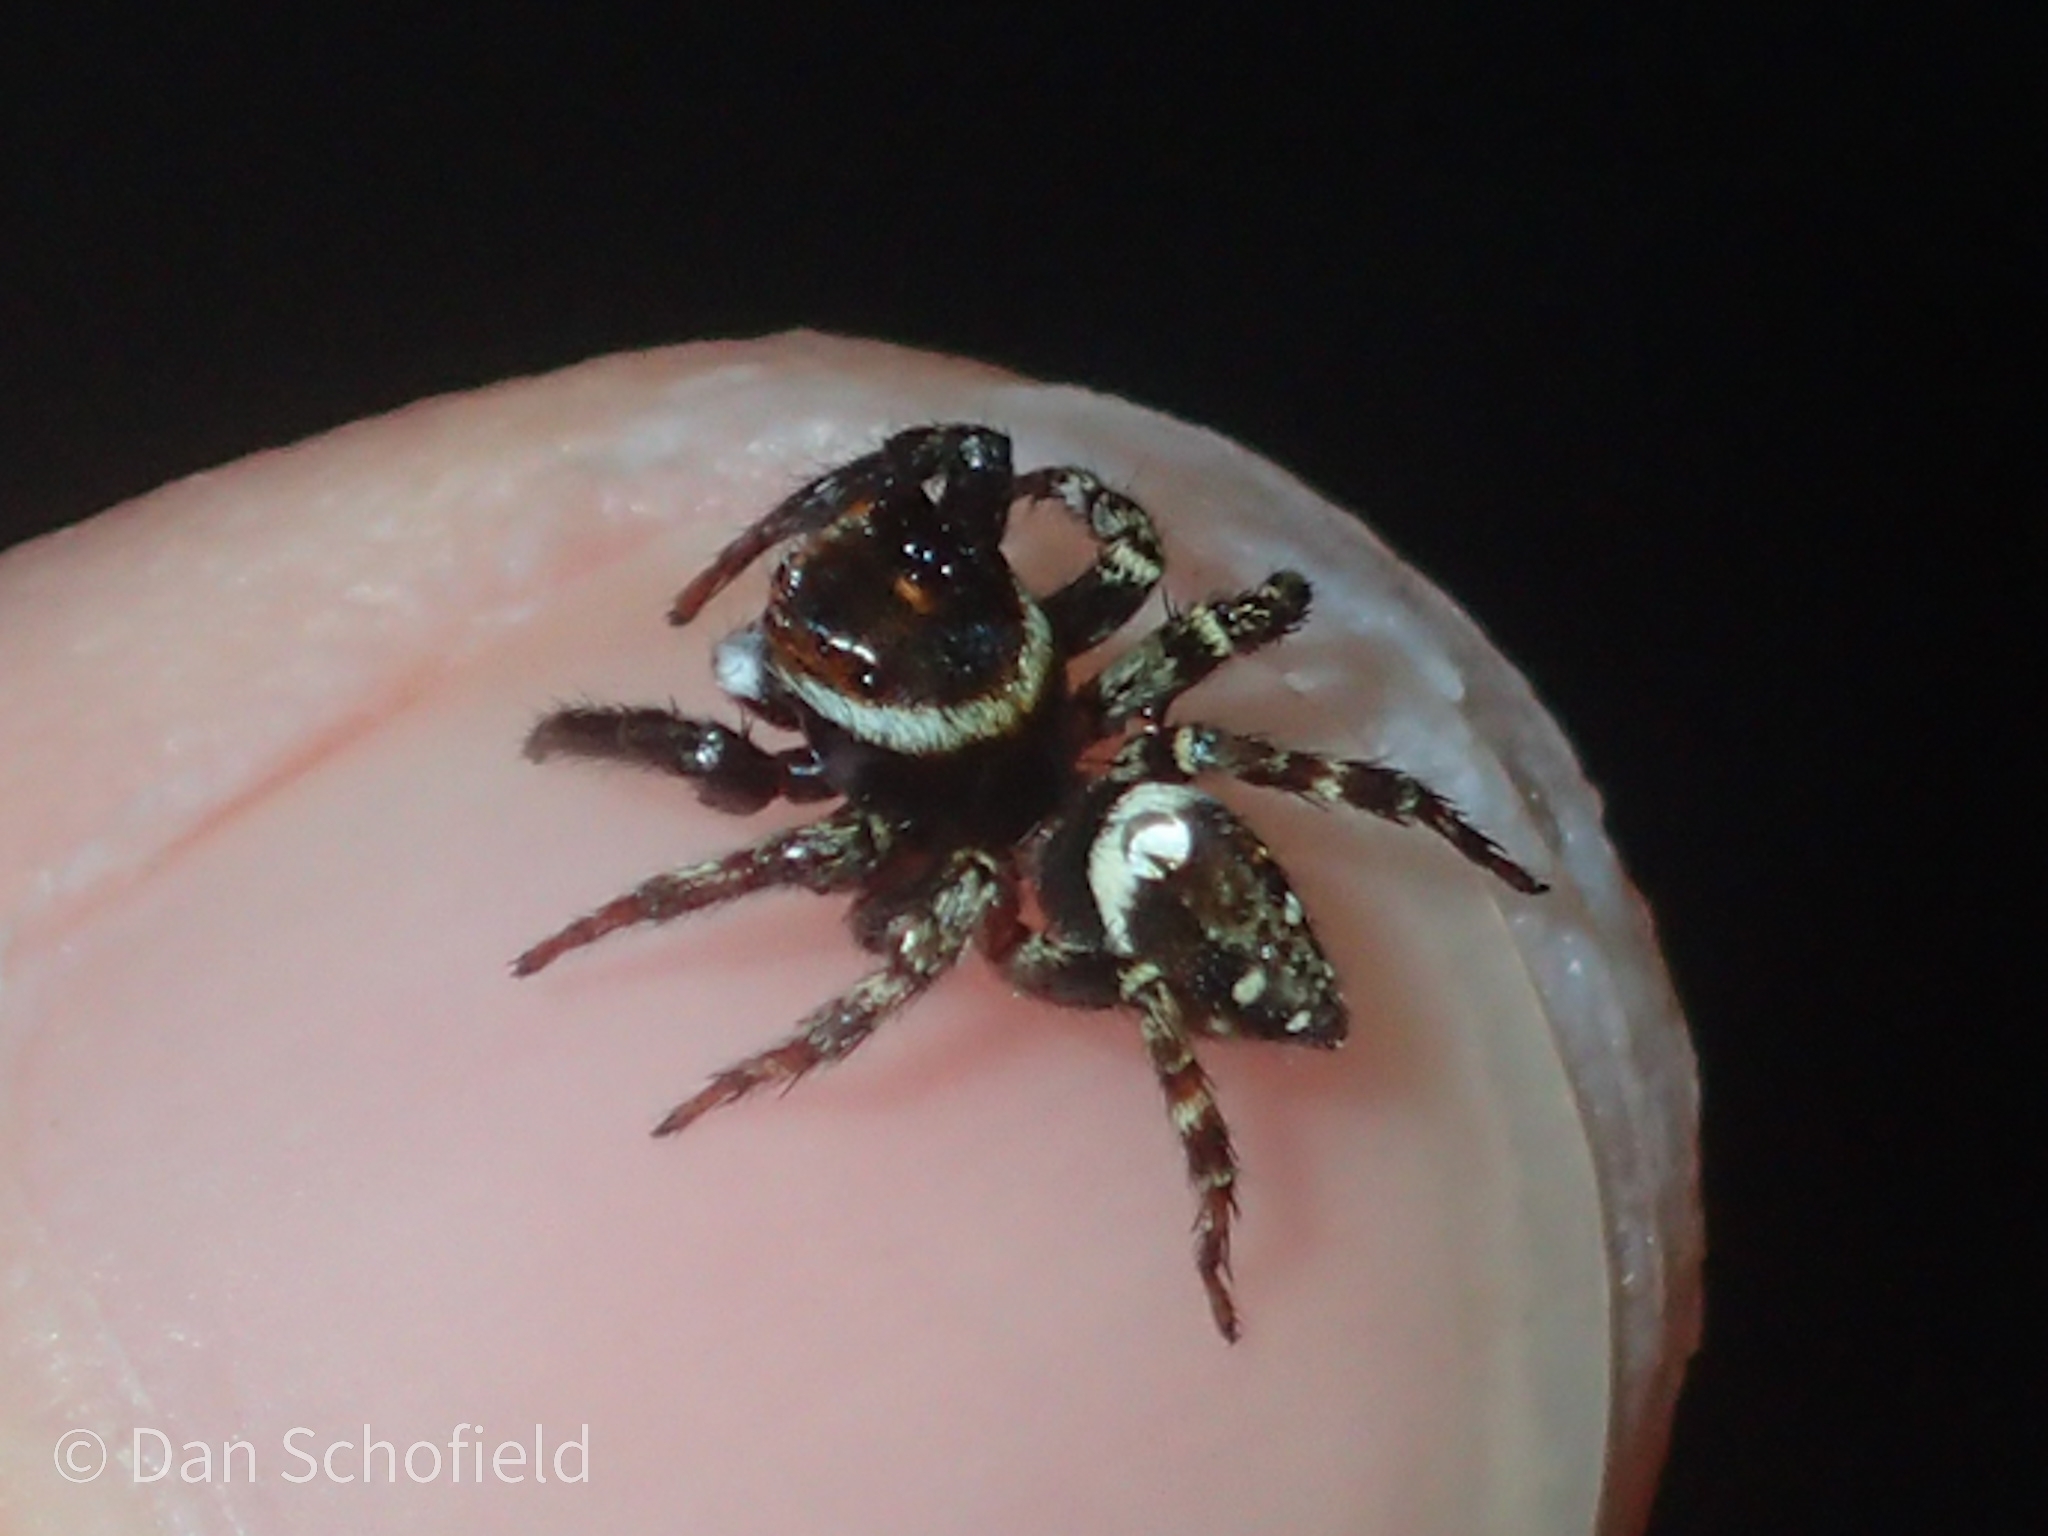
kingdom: Animalia
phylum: Arthropoda
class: Arachnida
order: Araneae
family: Salticidae
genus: Hasarius
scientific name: Hasarius adansoni
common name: Jumping spider
